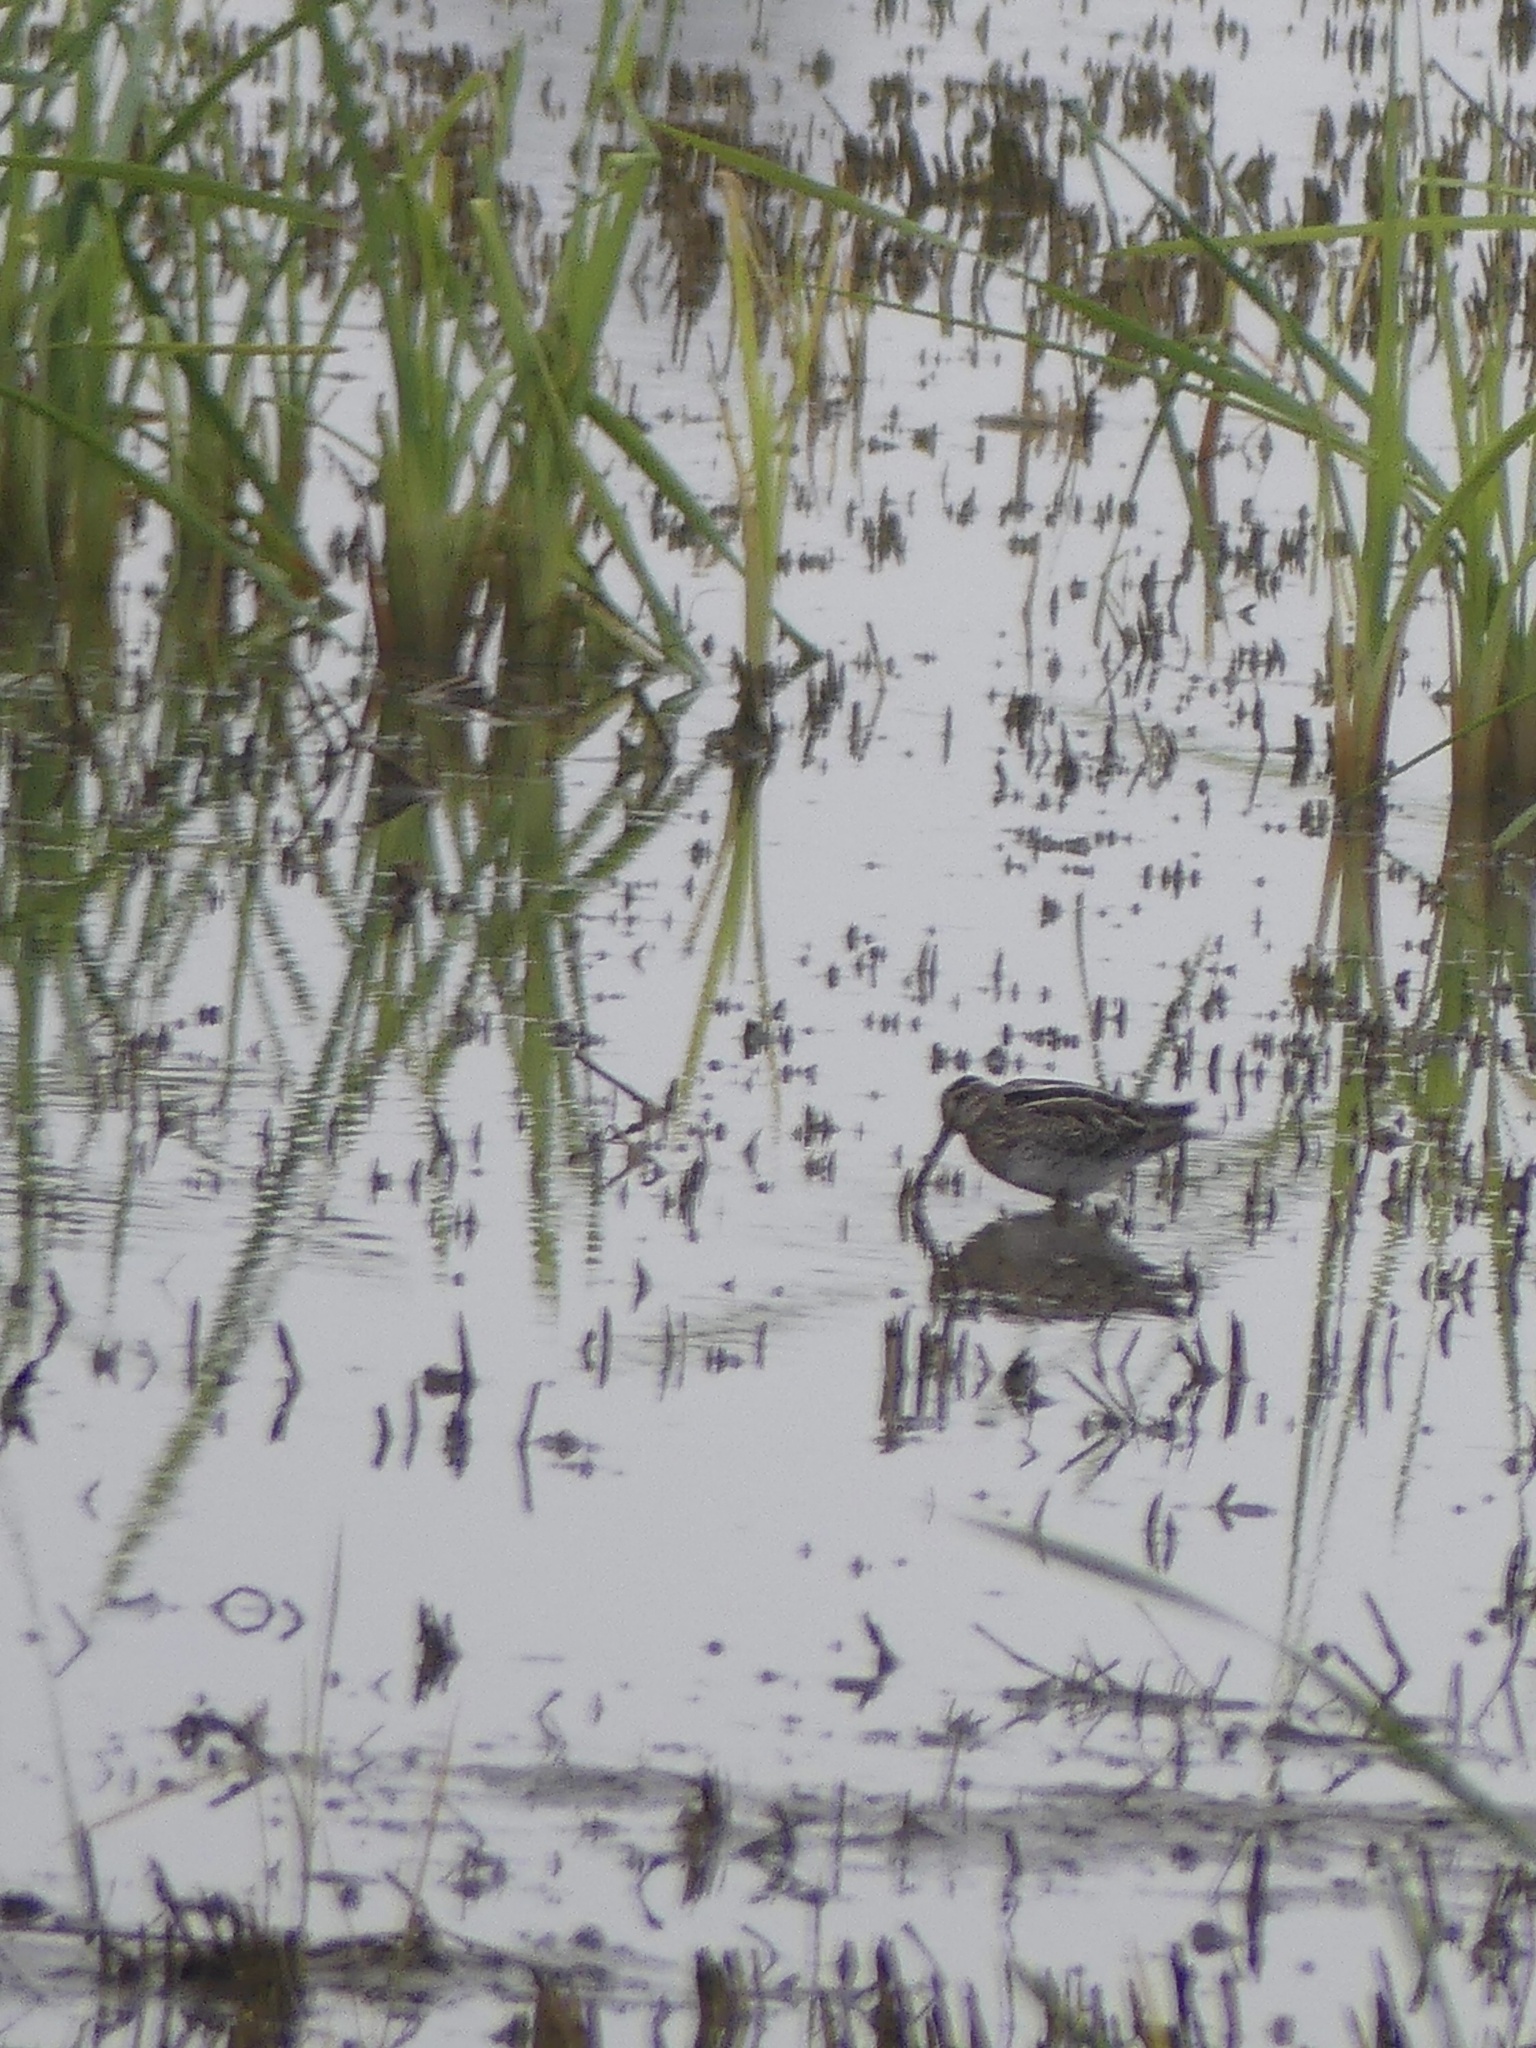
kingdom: Animalia
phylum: Chordata
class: Aves
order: Charadriiformes
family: Scolopacidae
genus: Gallinago
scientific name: Gallinago delicata
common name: Wilson's snipe
